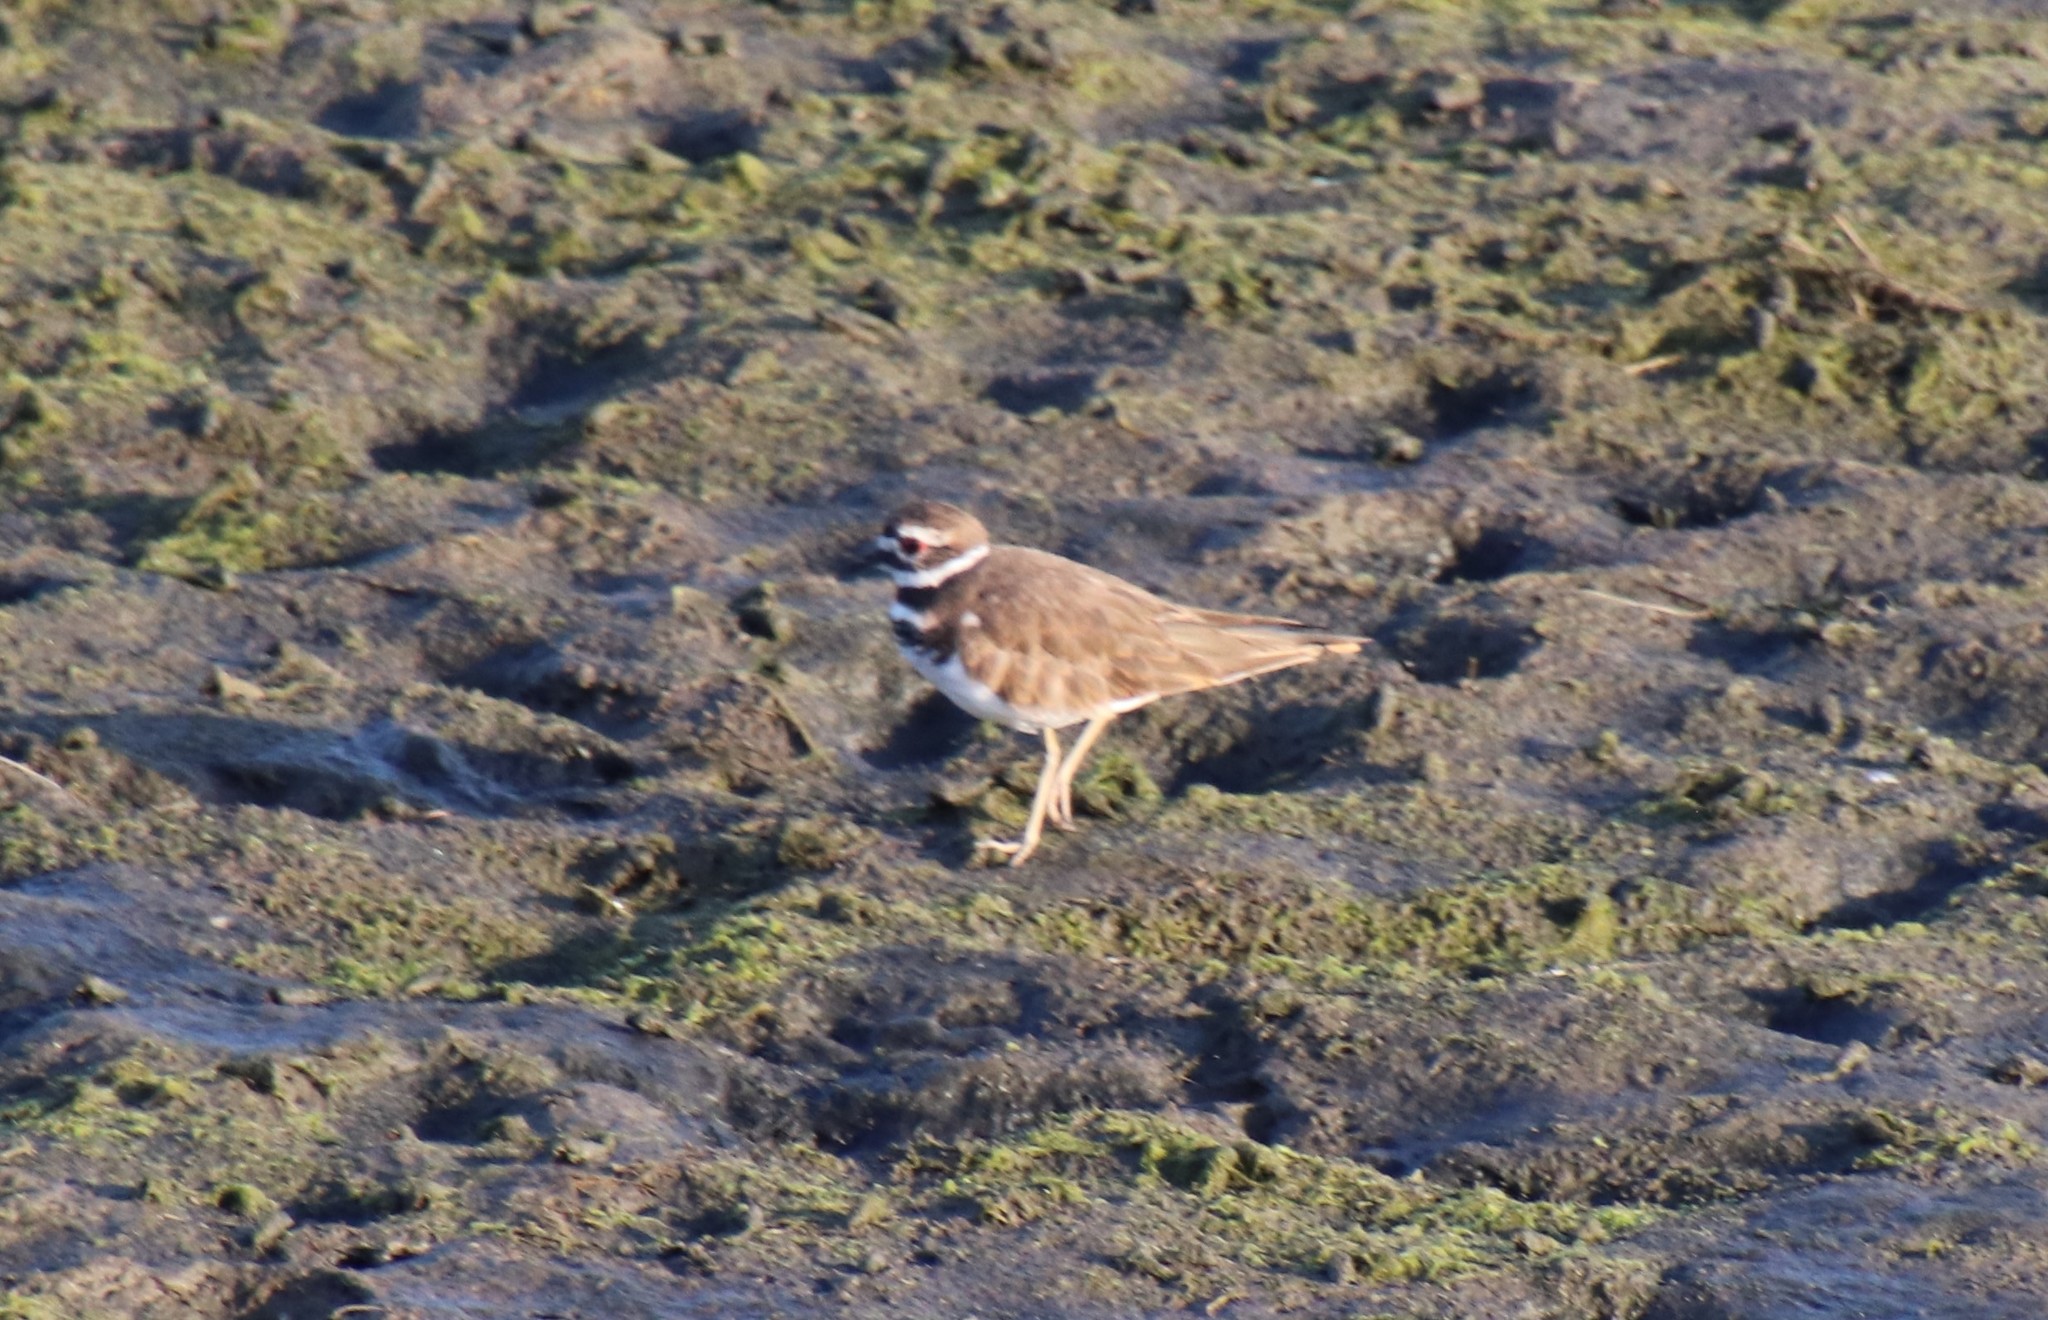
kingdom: Animalia
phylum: Chordata
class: Aves
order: Charadriiformes
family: Charadriidae
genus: Charadrius
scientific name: Charadrius vociferus
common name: Killdeer
